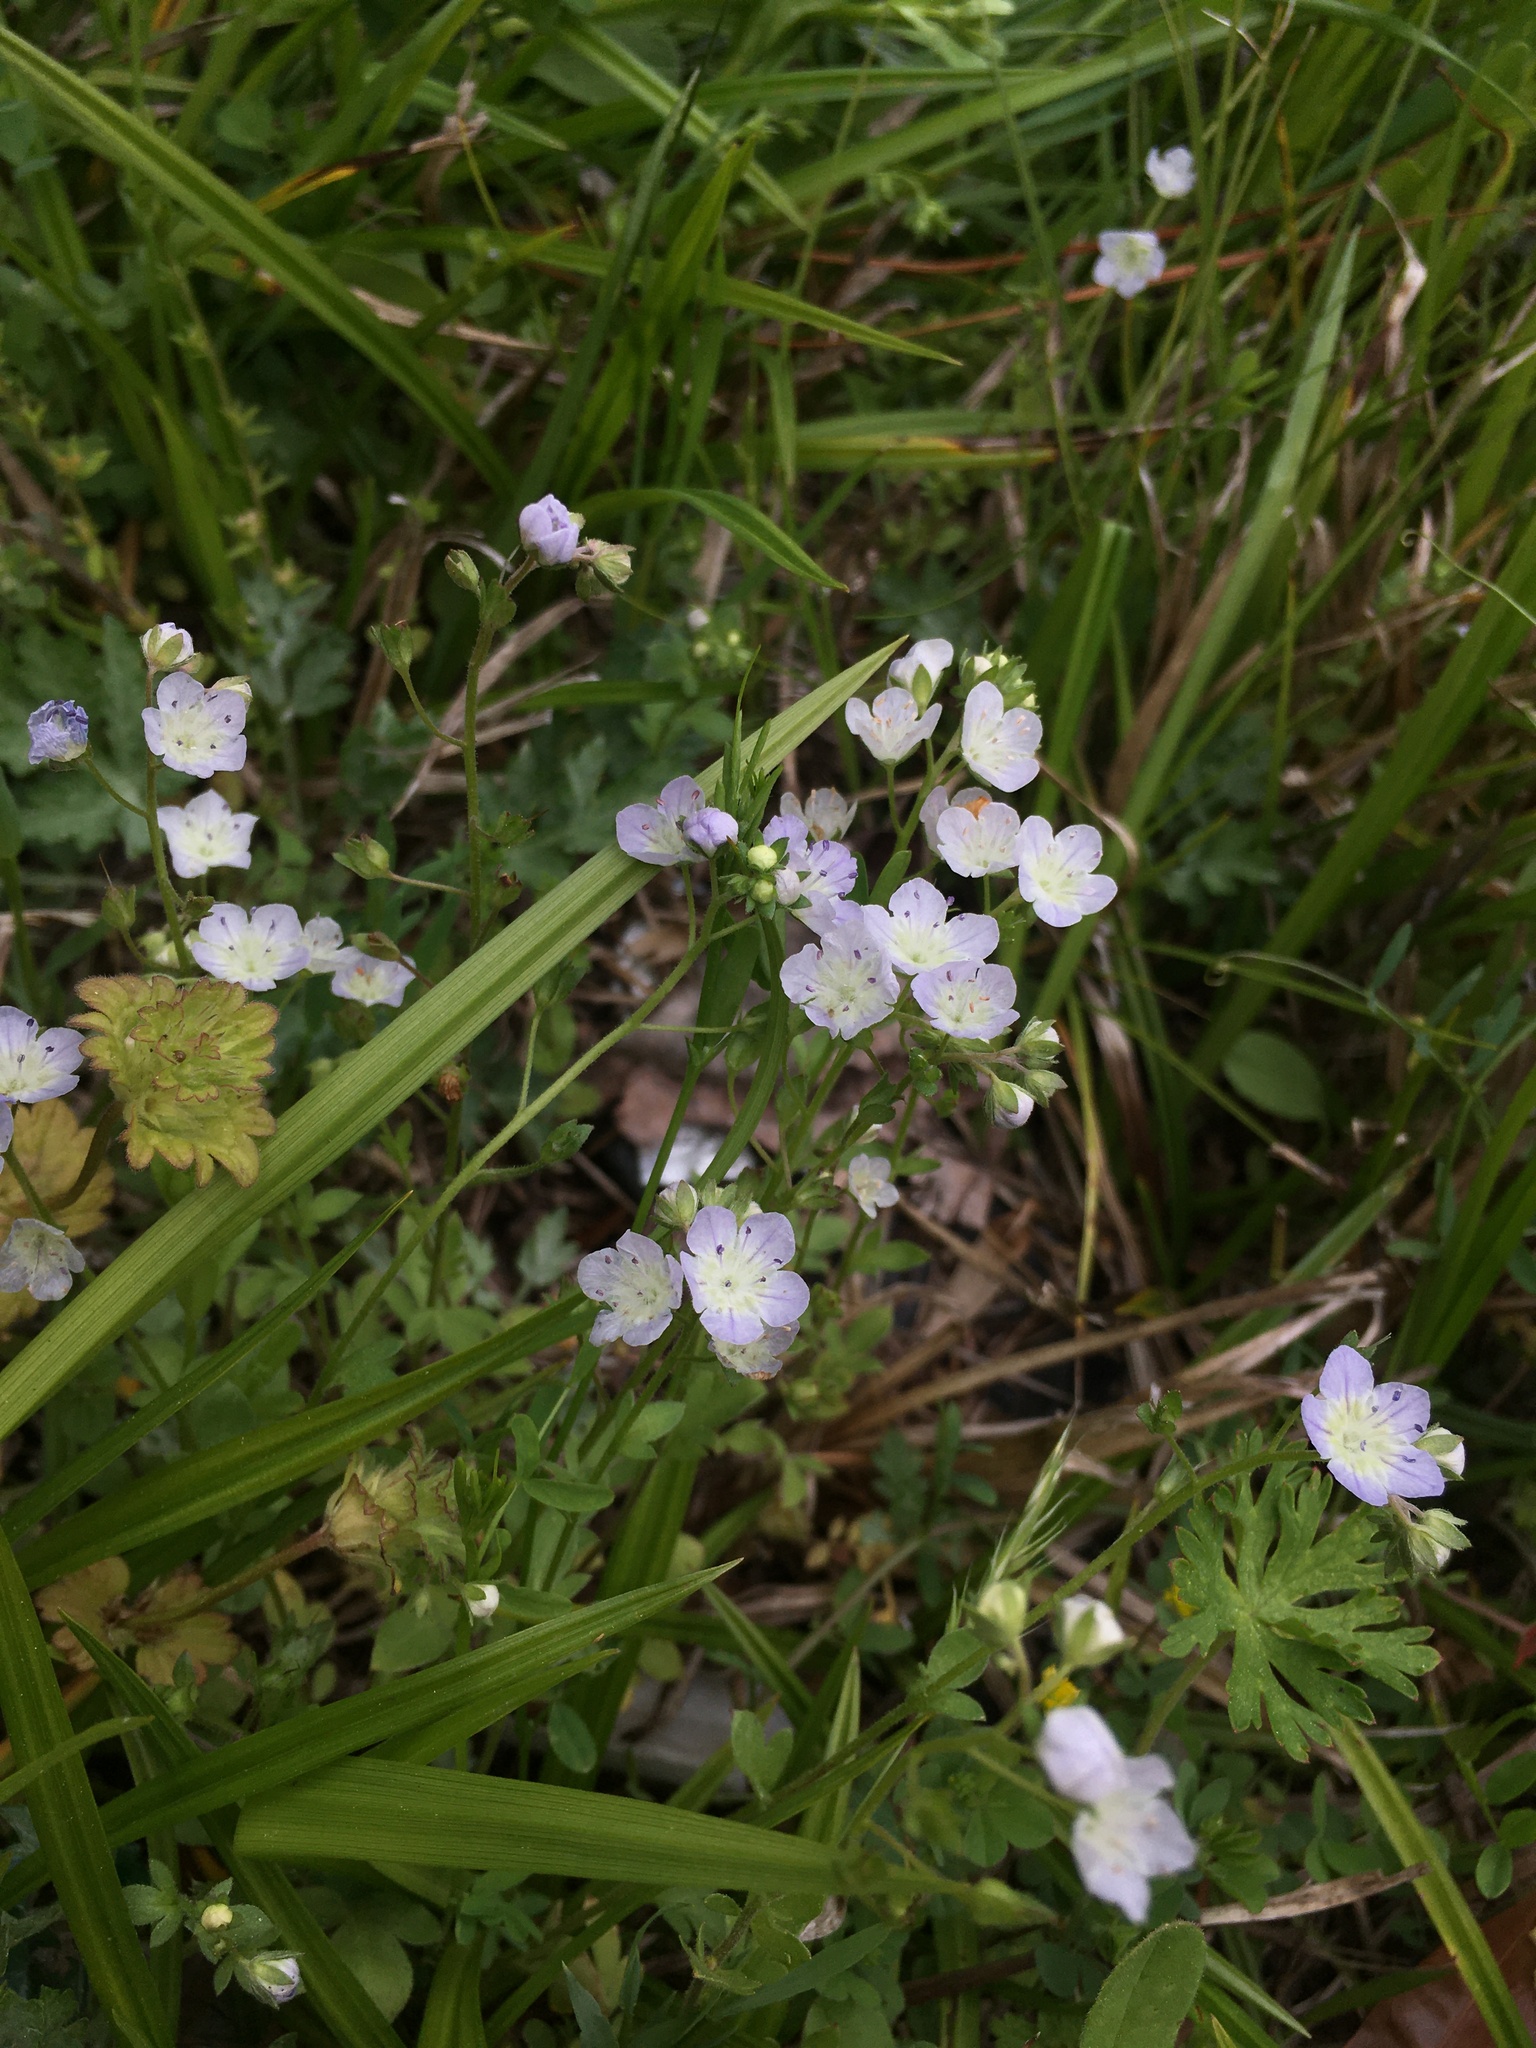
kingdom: Plantae
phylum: Tracheophyta
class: Magnoliopsida
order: Boraginales
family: Hydrophyllaceae
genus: Phacelia
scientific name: Phacelia dubia
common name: Appalachian phacelia
